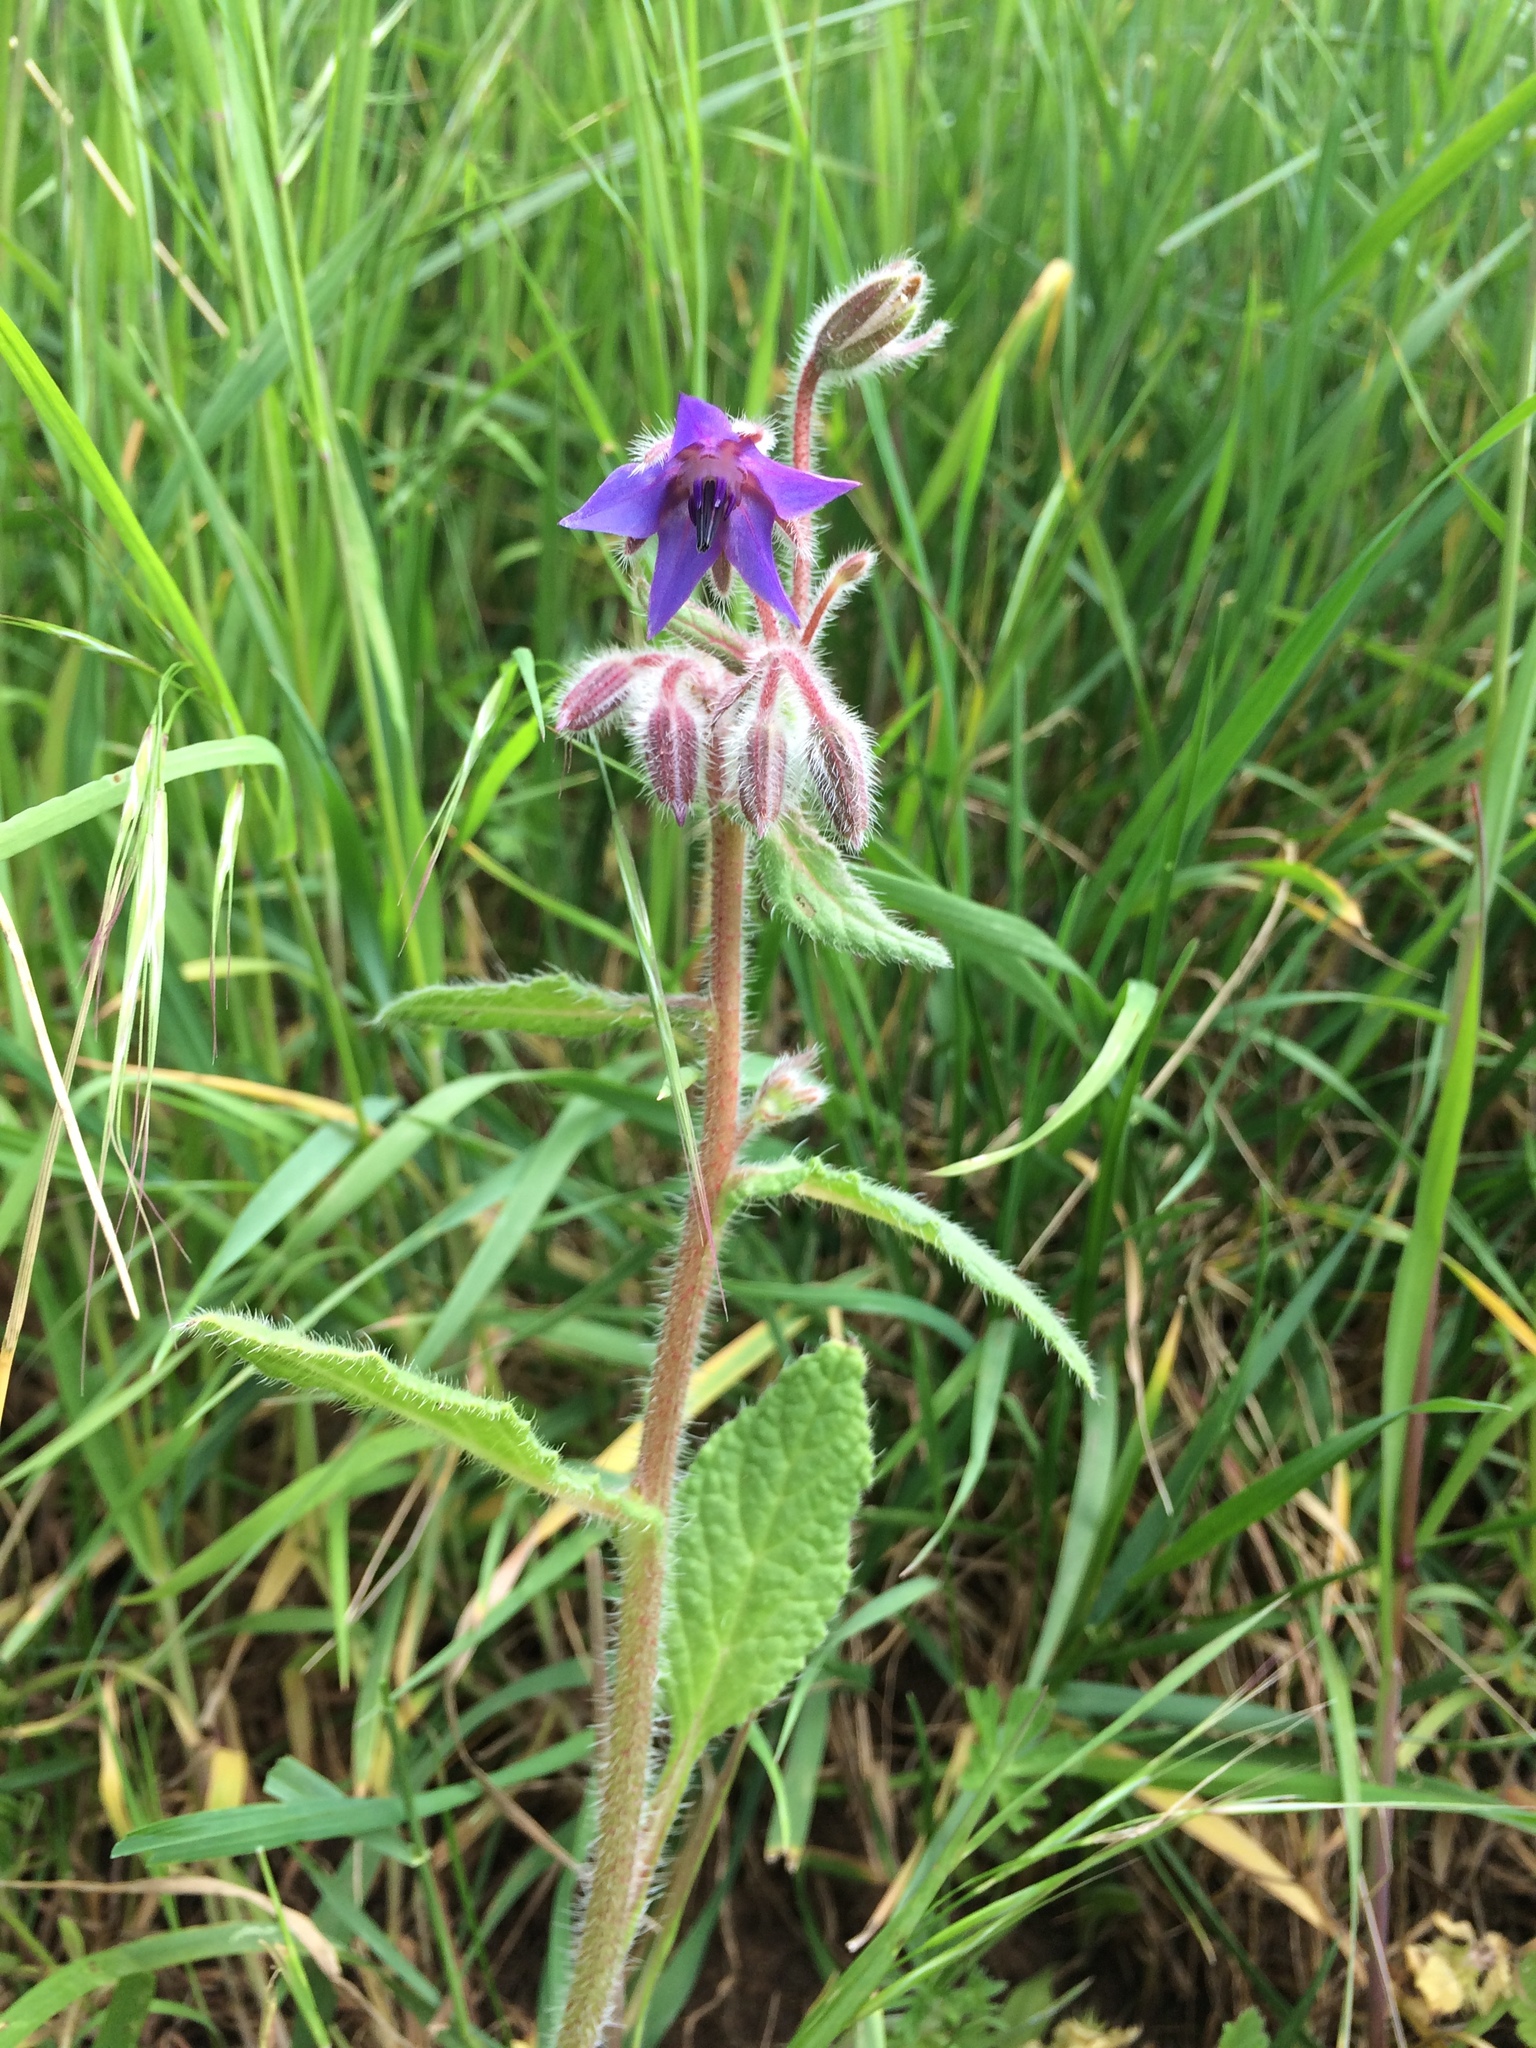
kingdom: Plantae
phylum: Tracheophyta
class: Magnoliopsida
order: Boraginales
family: Boraginaceae
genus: Borago
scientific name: Borago officinalis
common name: Borage
